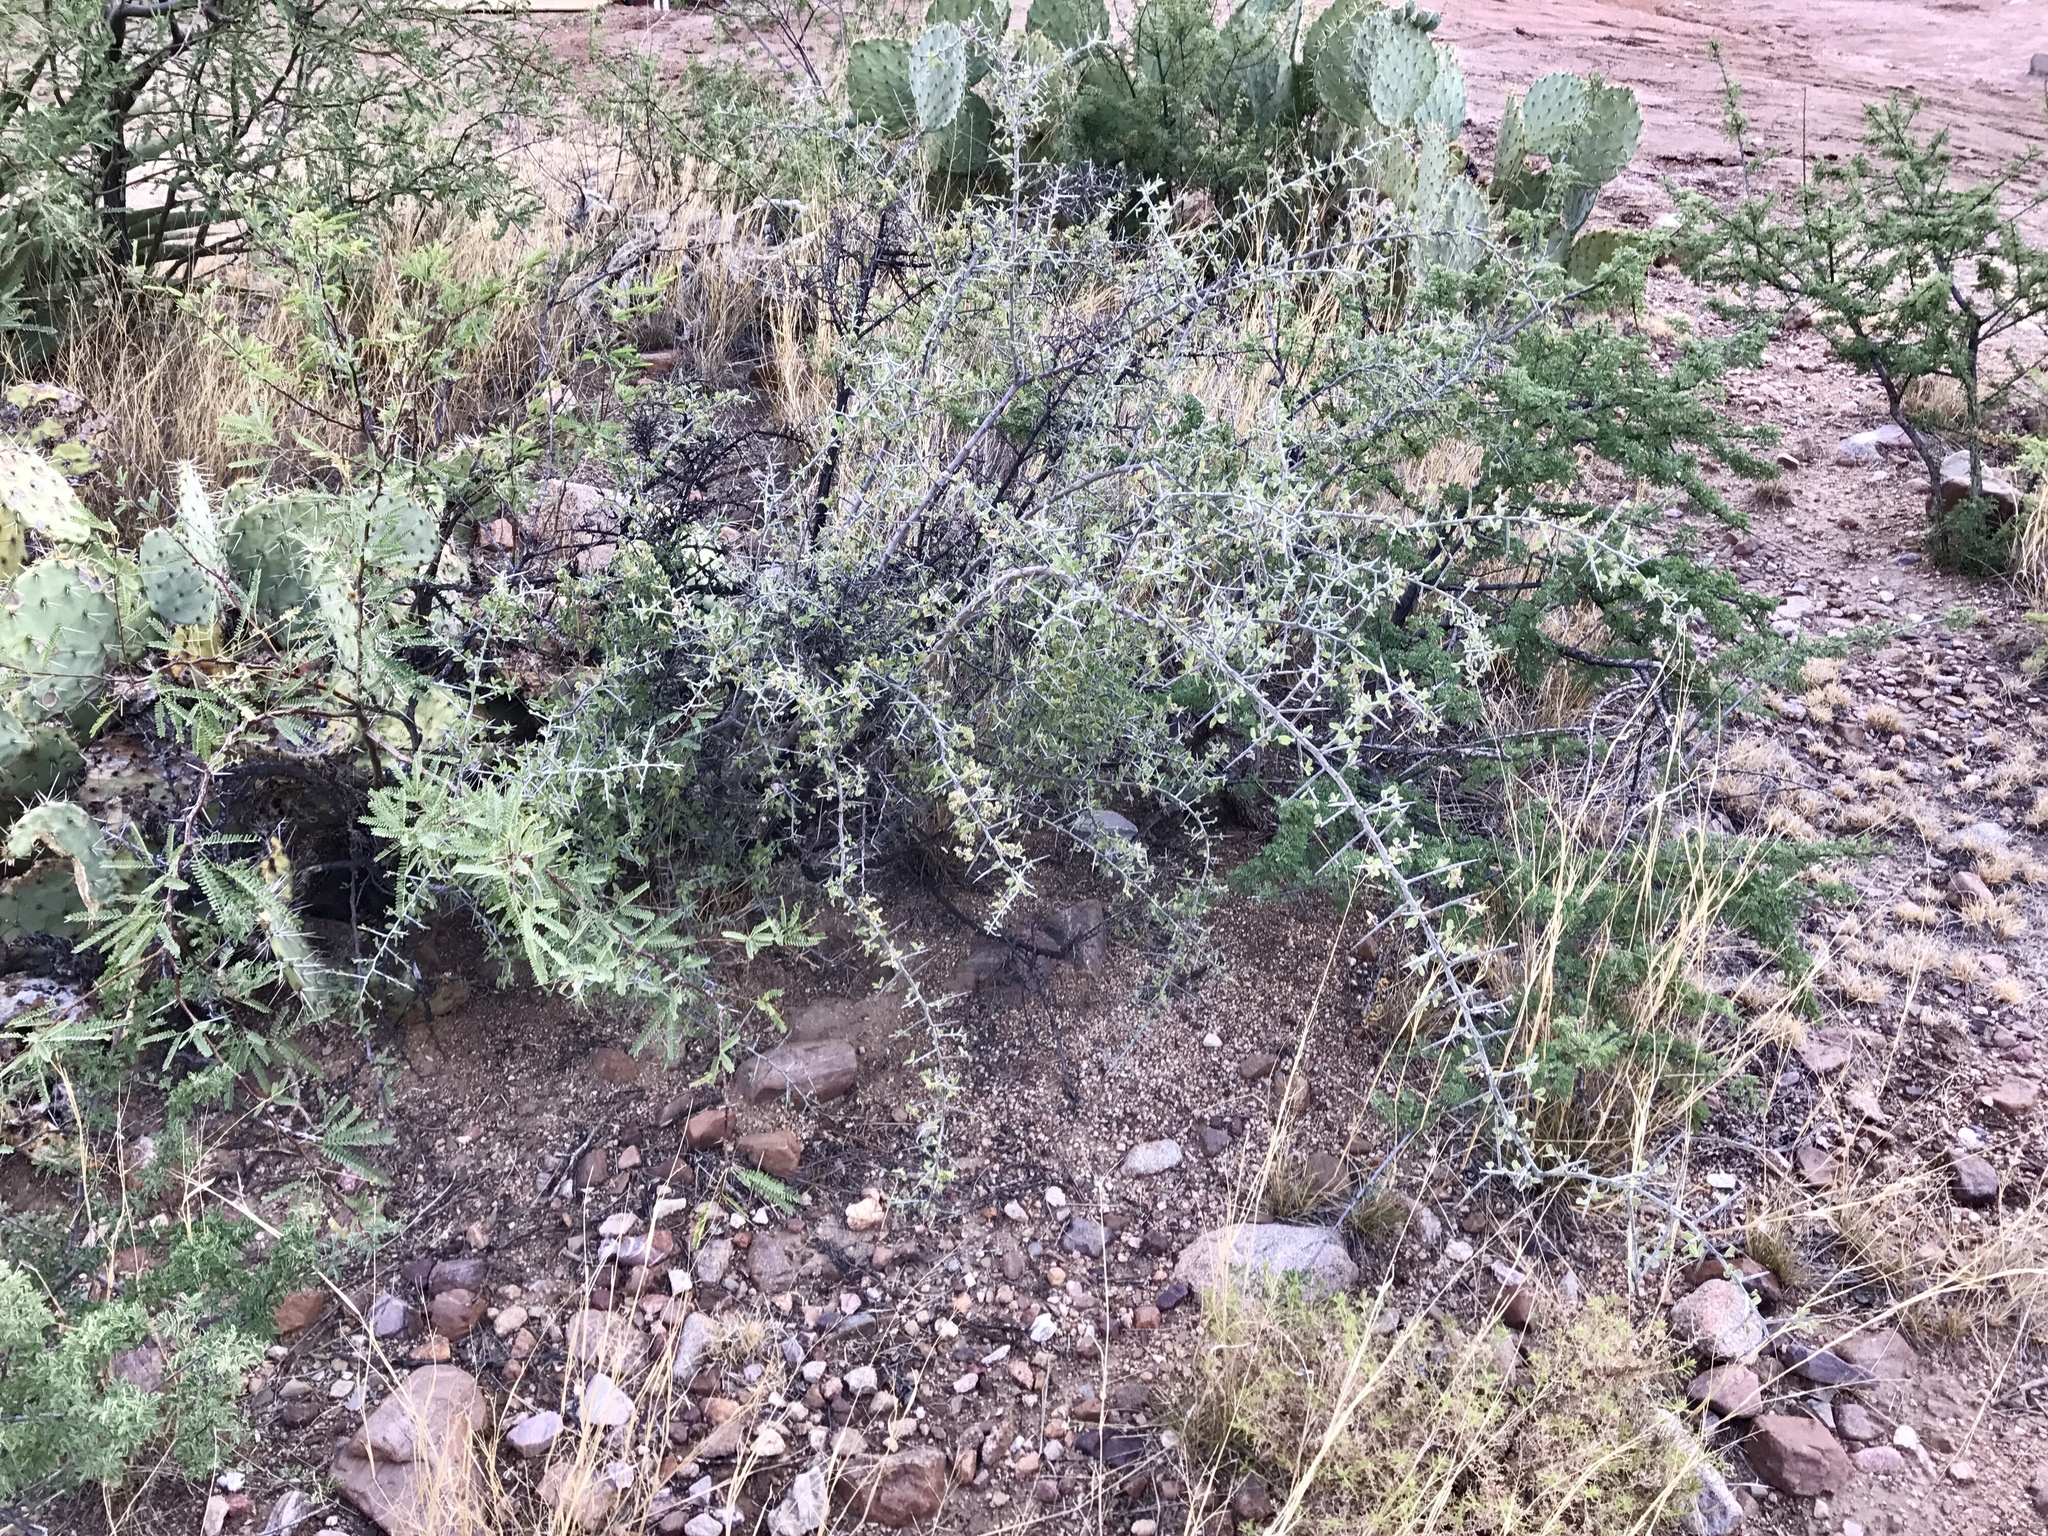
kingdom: Plantae
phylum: Tracheophyta
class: Magnoliopsida
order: Rosales
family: Rhamnaceae
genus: Sarcomphalus
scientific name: Sarcomphalus obtusifolius
